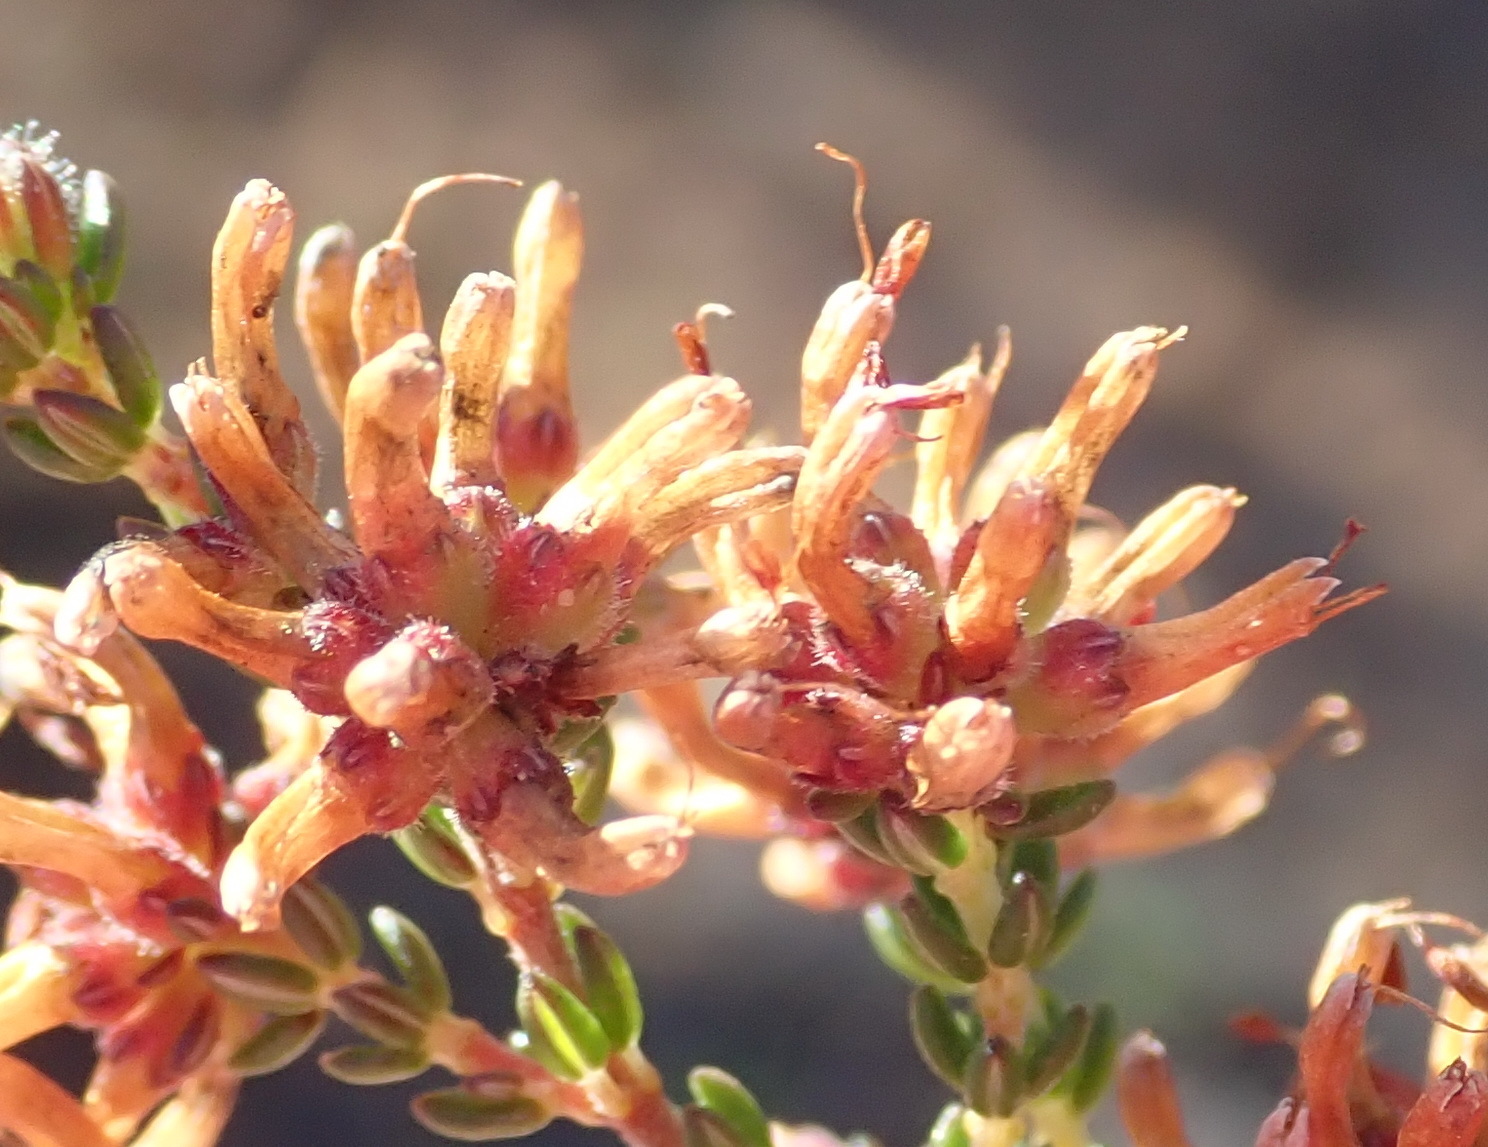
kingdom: Plantae
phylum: Tracheophyta
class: Magnoliopsida
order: Ericales
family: Ericaceae
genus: Erica
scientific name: Erica radicans
